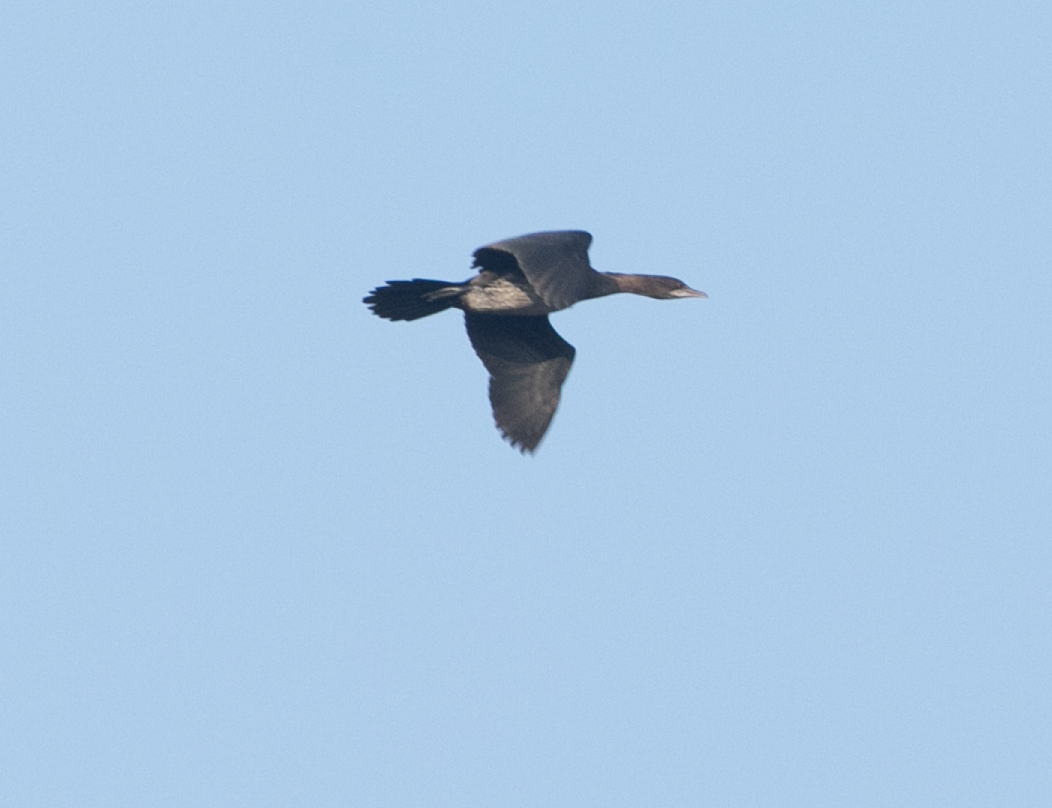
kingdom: Animalia
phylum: Chordata
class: Aves
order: Suliformes
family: Phalacrocoracidae
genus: Microcarbo
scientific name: Microcarbo pygmaeus
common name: Pygmy cormorant
